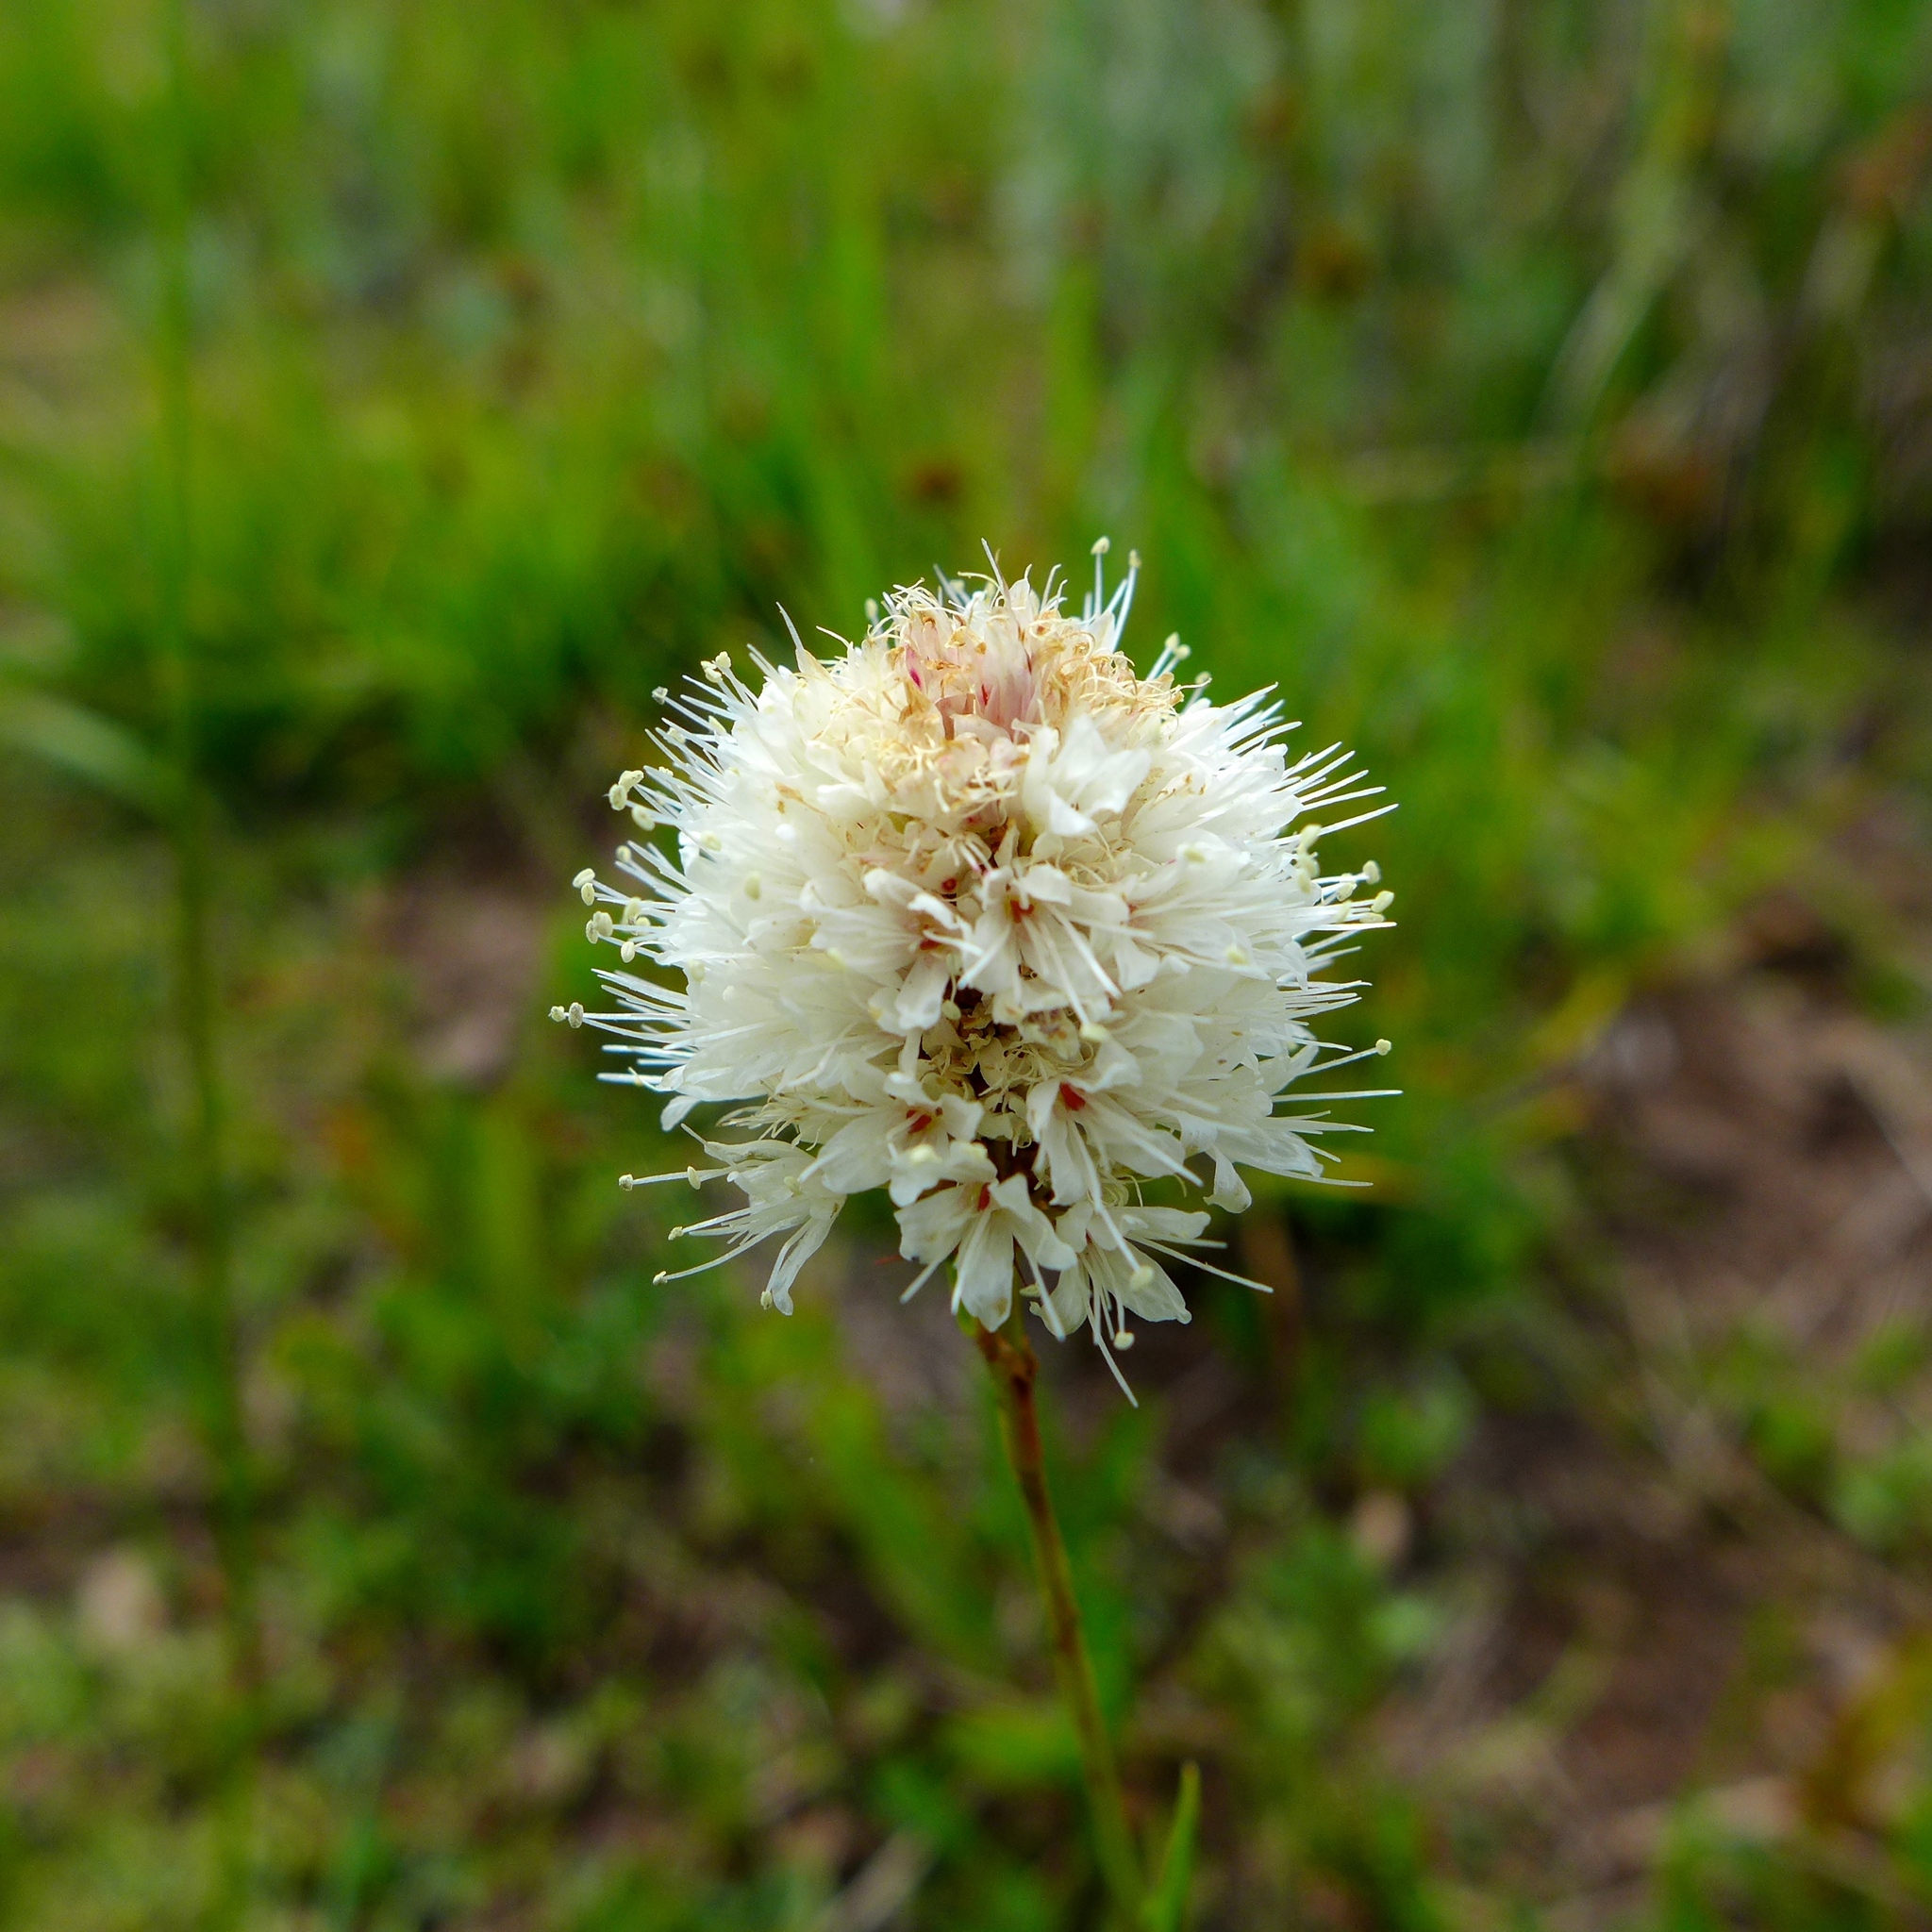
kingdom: Plantae
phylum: Tracheophyta
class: Magnoliopsida
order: Caryophyllales
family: Polygonaceae
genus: Bistorta
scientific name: Bistorta bistortoides
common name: American bistort
